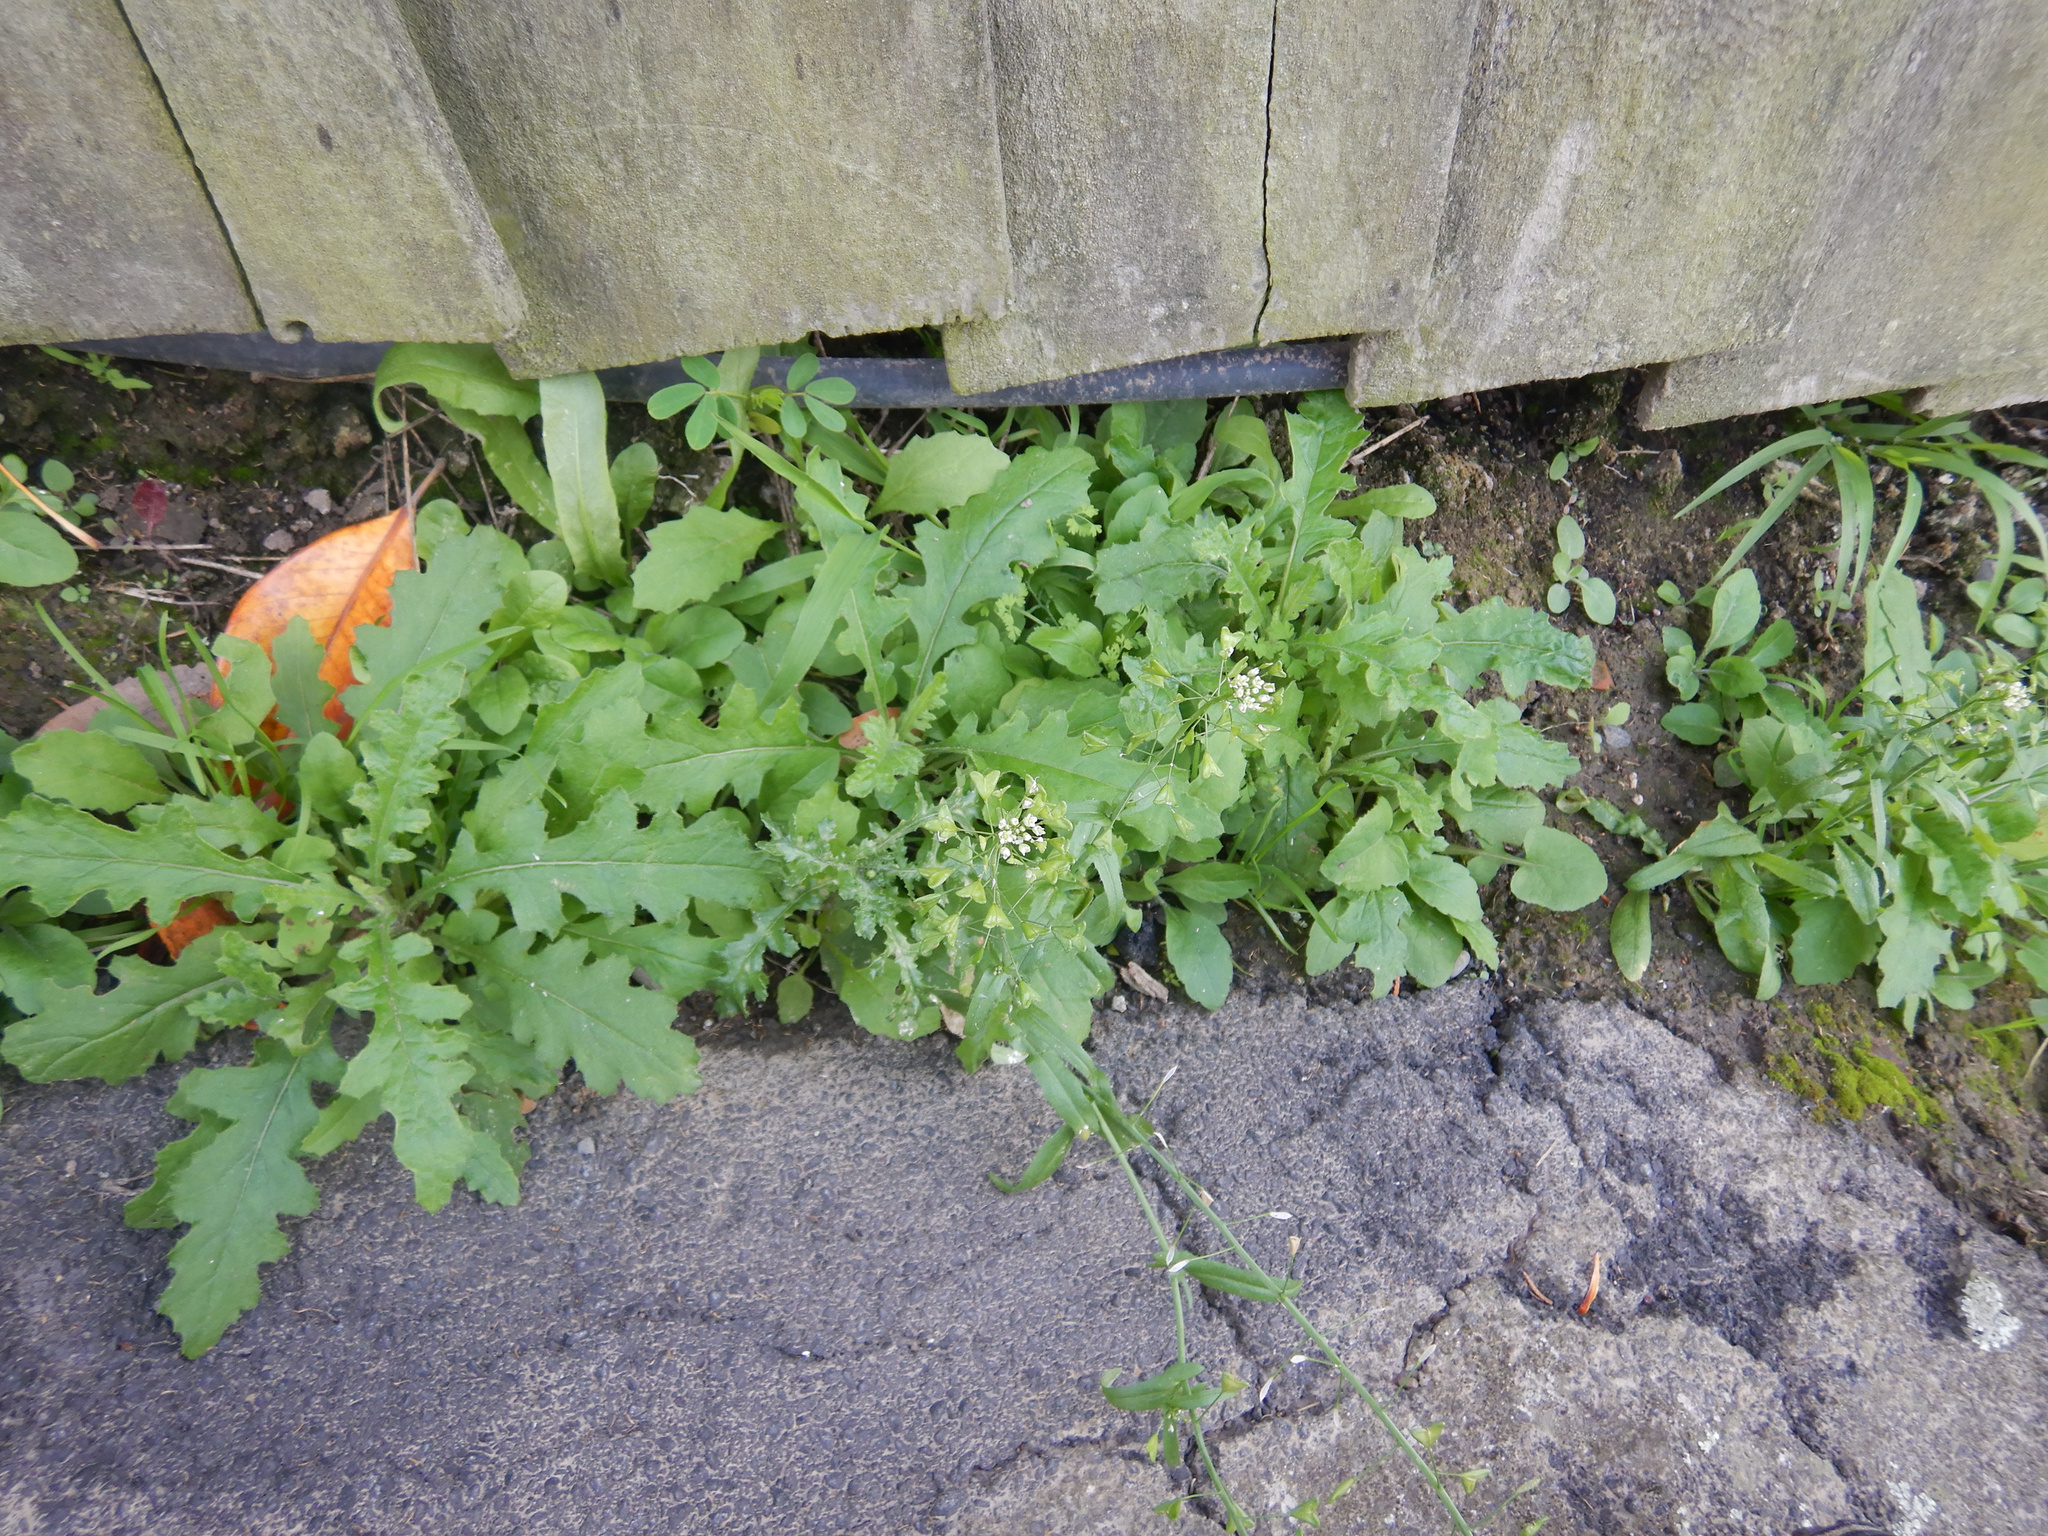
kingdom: Plantae
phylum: Tracheophyta
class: Magnoliopsida
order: Asterales
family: Asteraceae
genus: Senecio
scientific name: Senecio hispidulus
